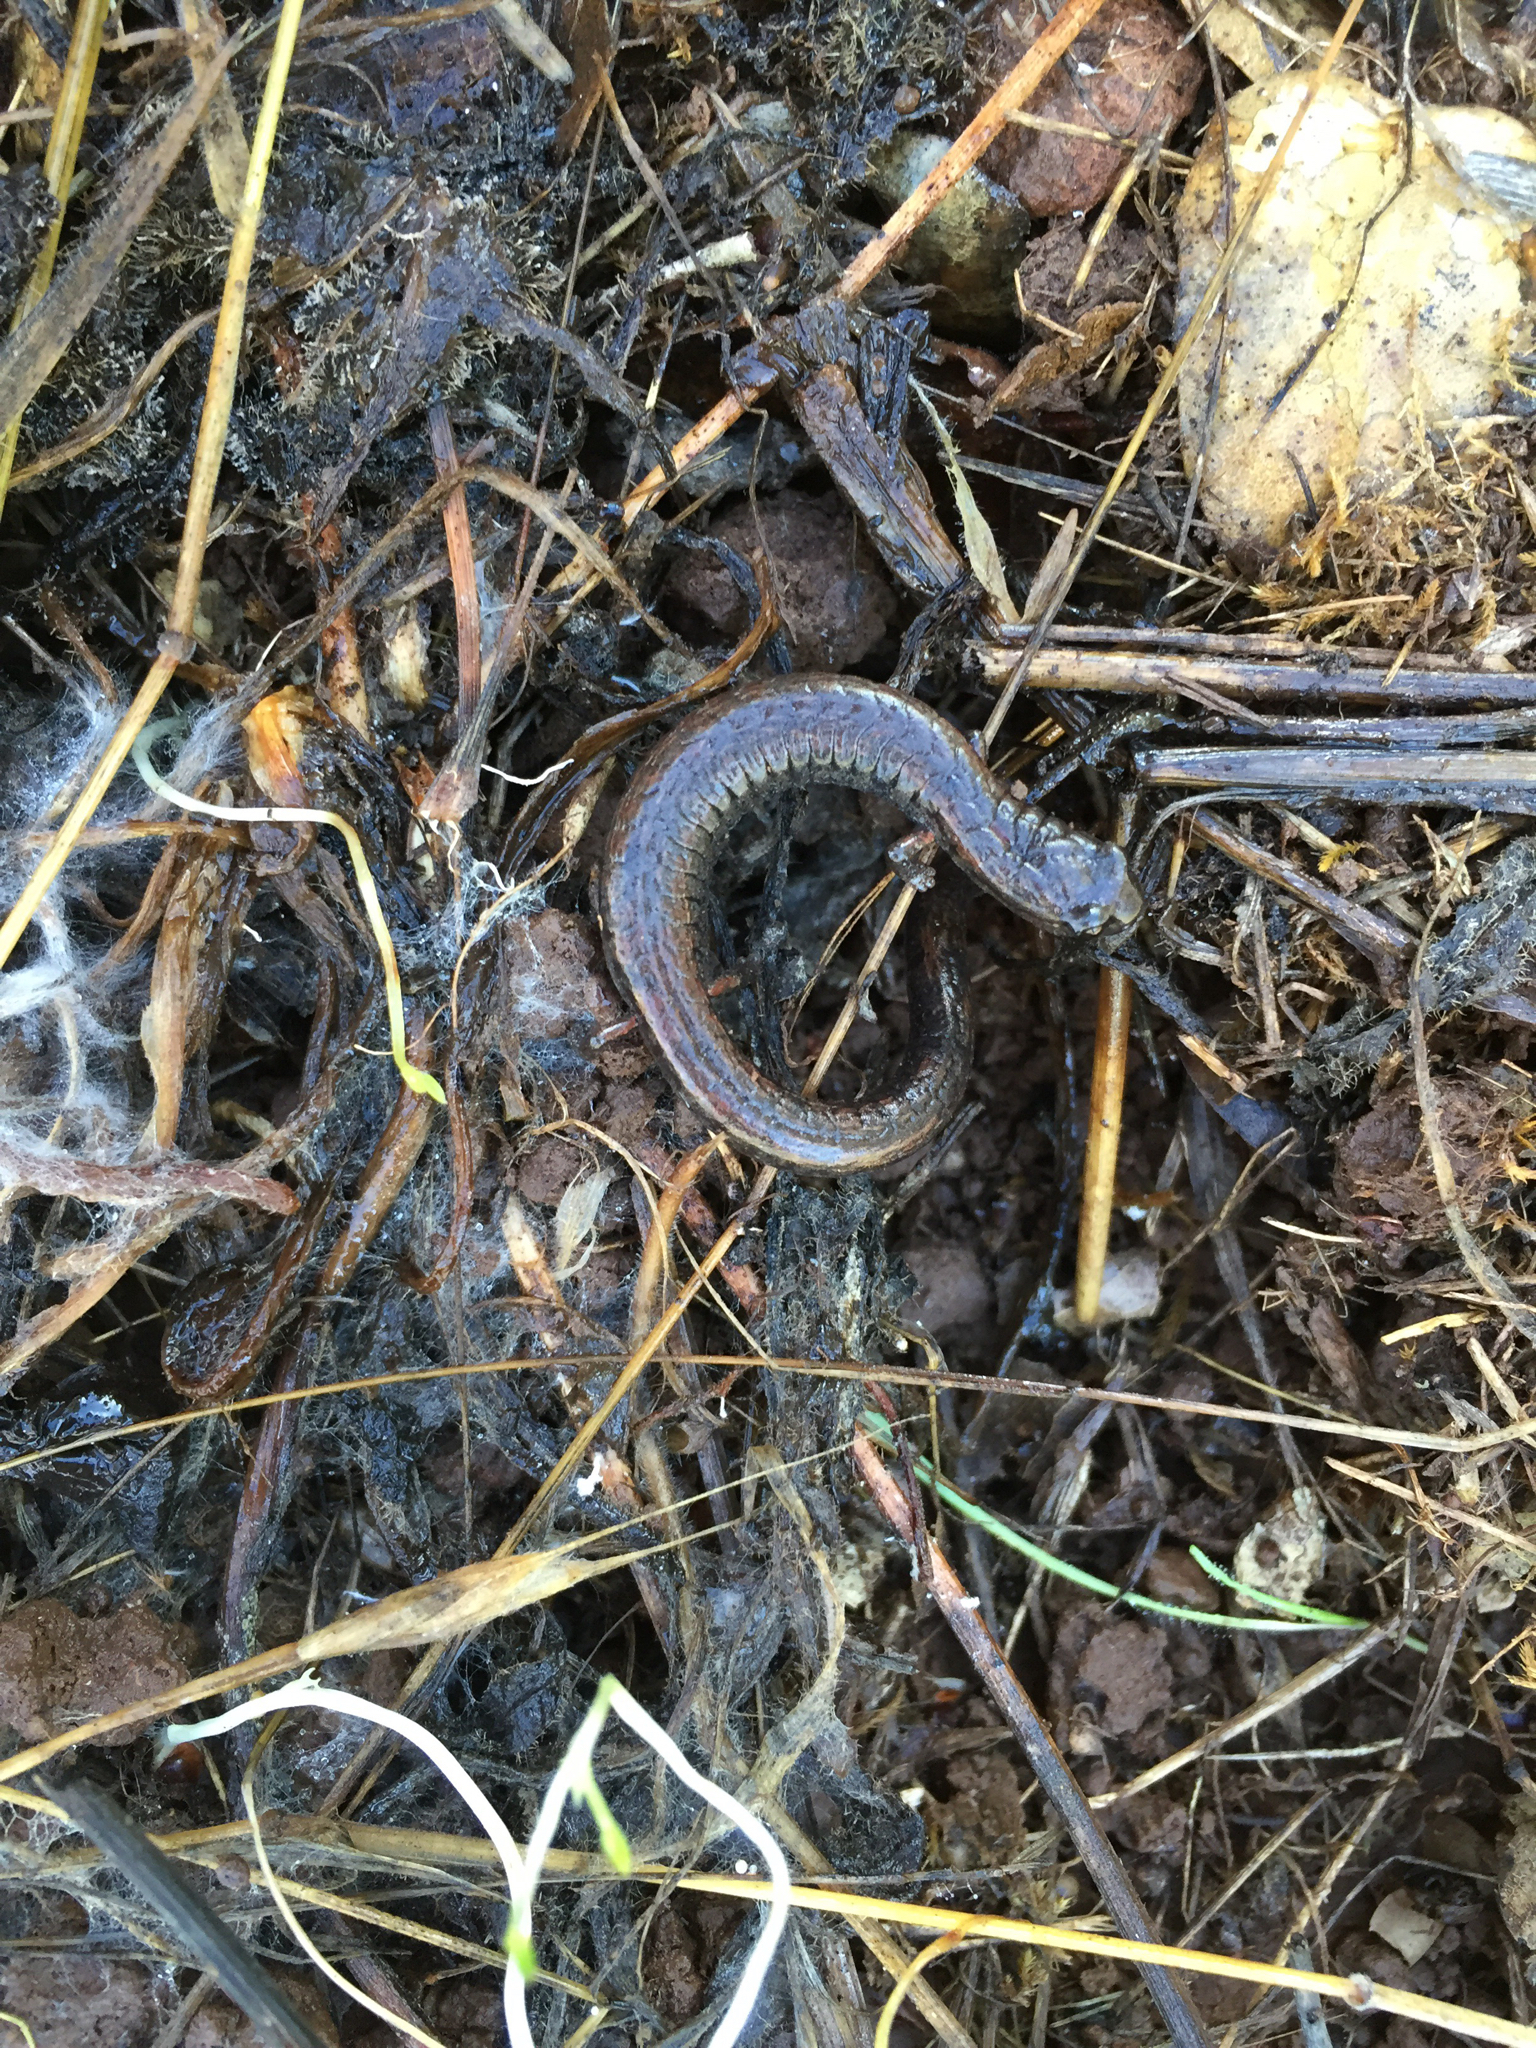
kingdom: Animalia
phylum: Chordata
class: Amphibia
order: Caudata
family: Plethodontidae
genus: Batrachoseps
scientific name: Batrachoseps attenuatus
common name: California slender salamander
